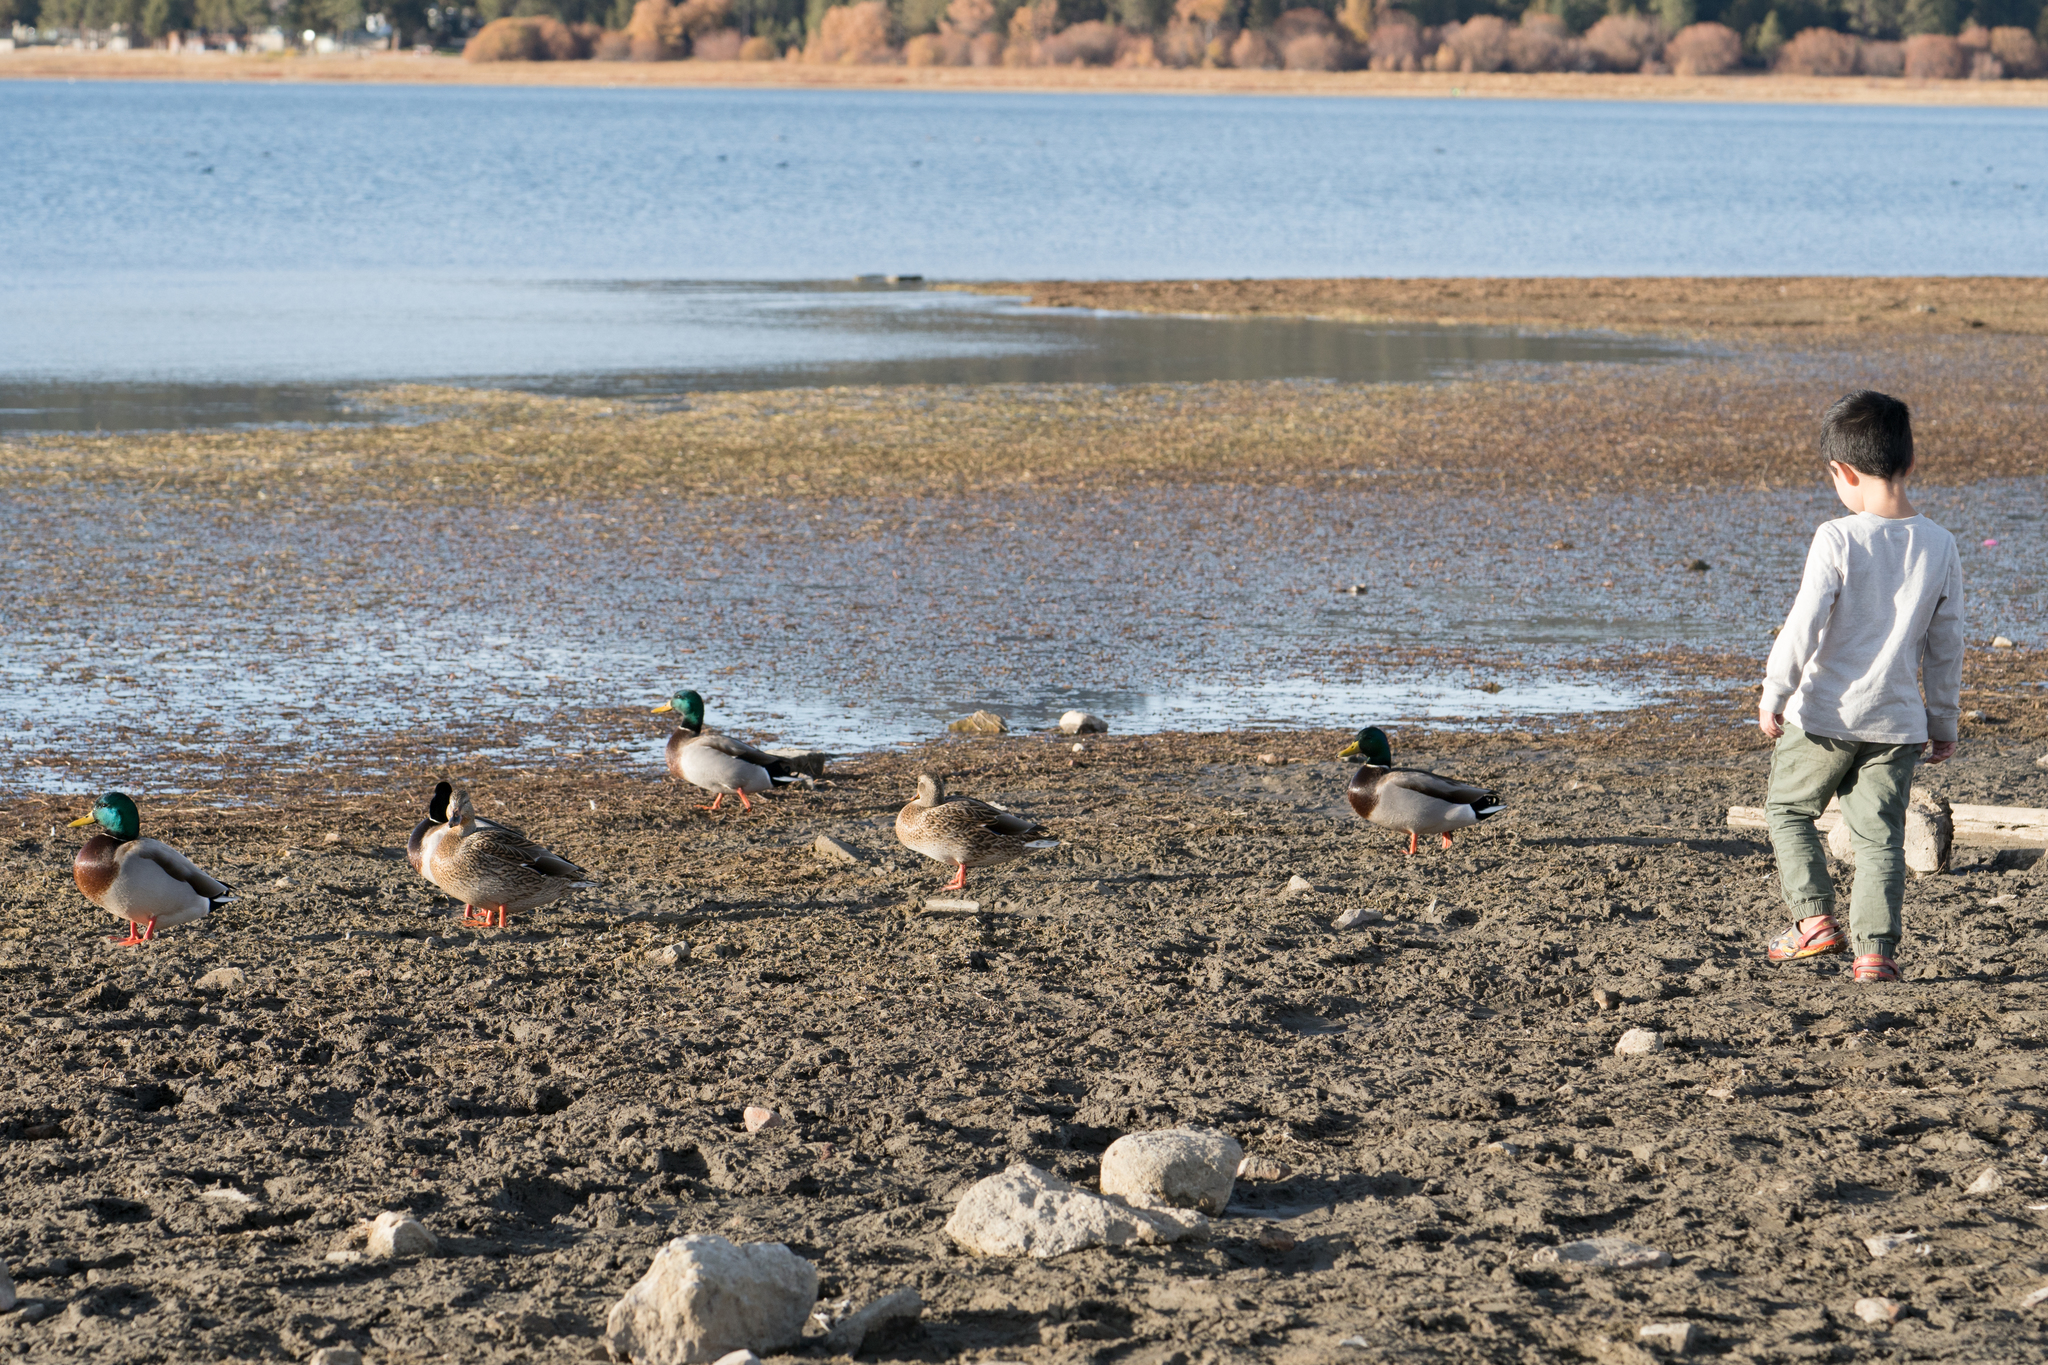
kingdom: Animalia
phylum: Chordata
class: Aves
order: Anseriformes
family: Anatidae
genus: Anas
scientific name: Anas platyrhynchos
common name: Mallard
